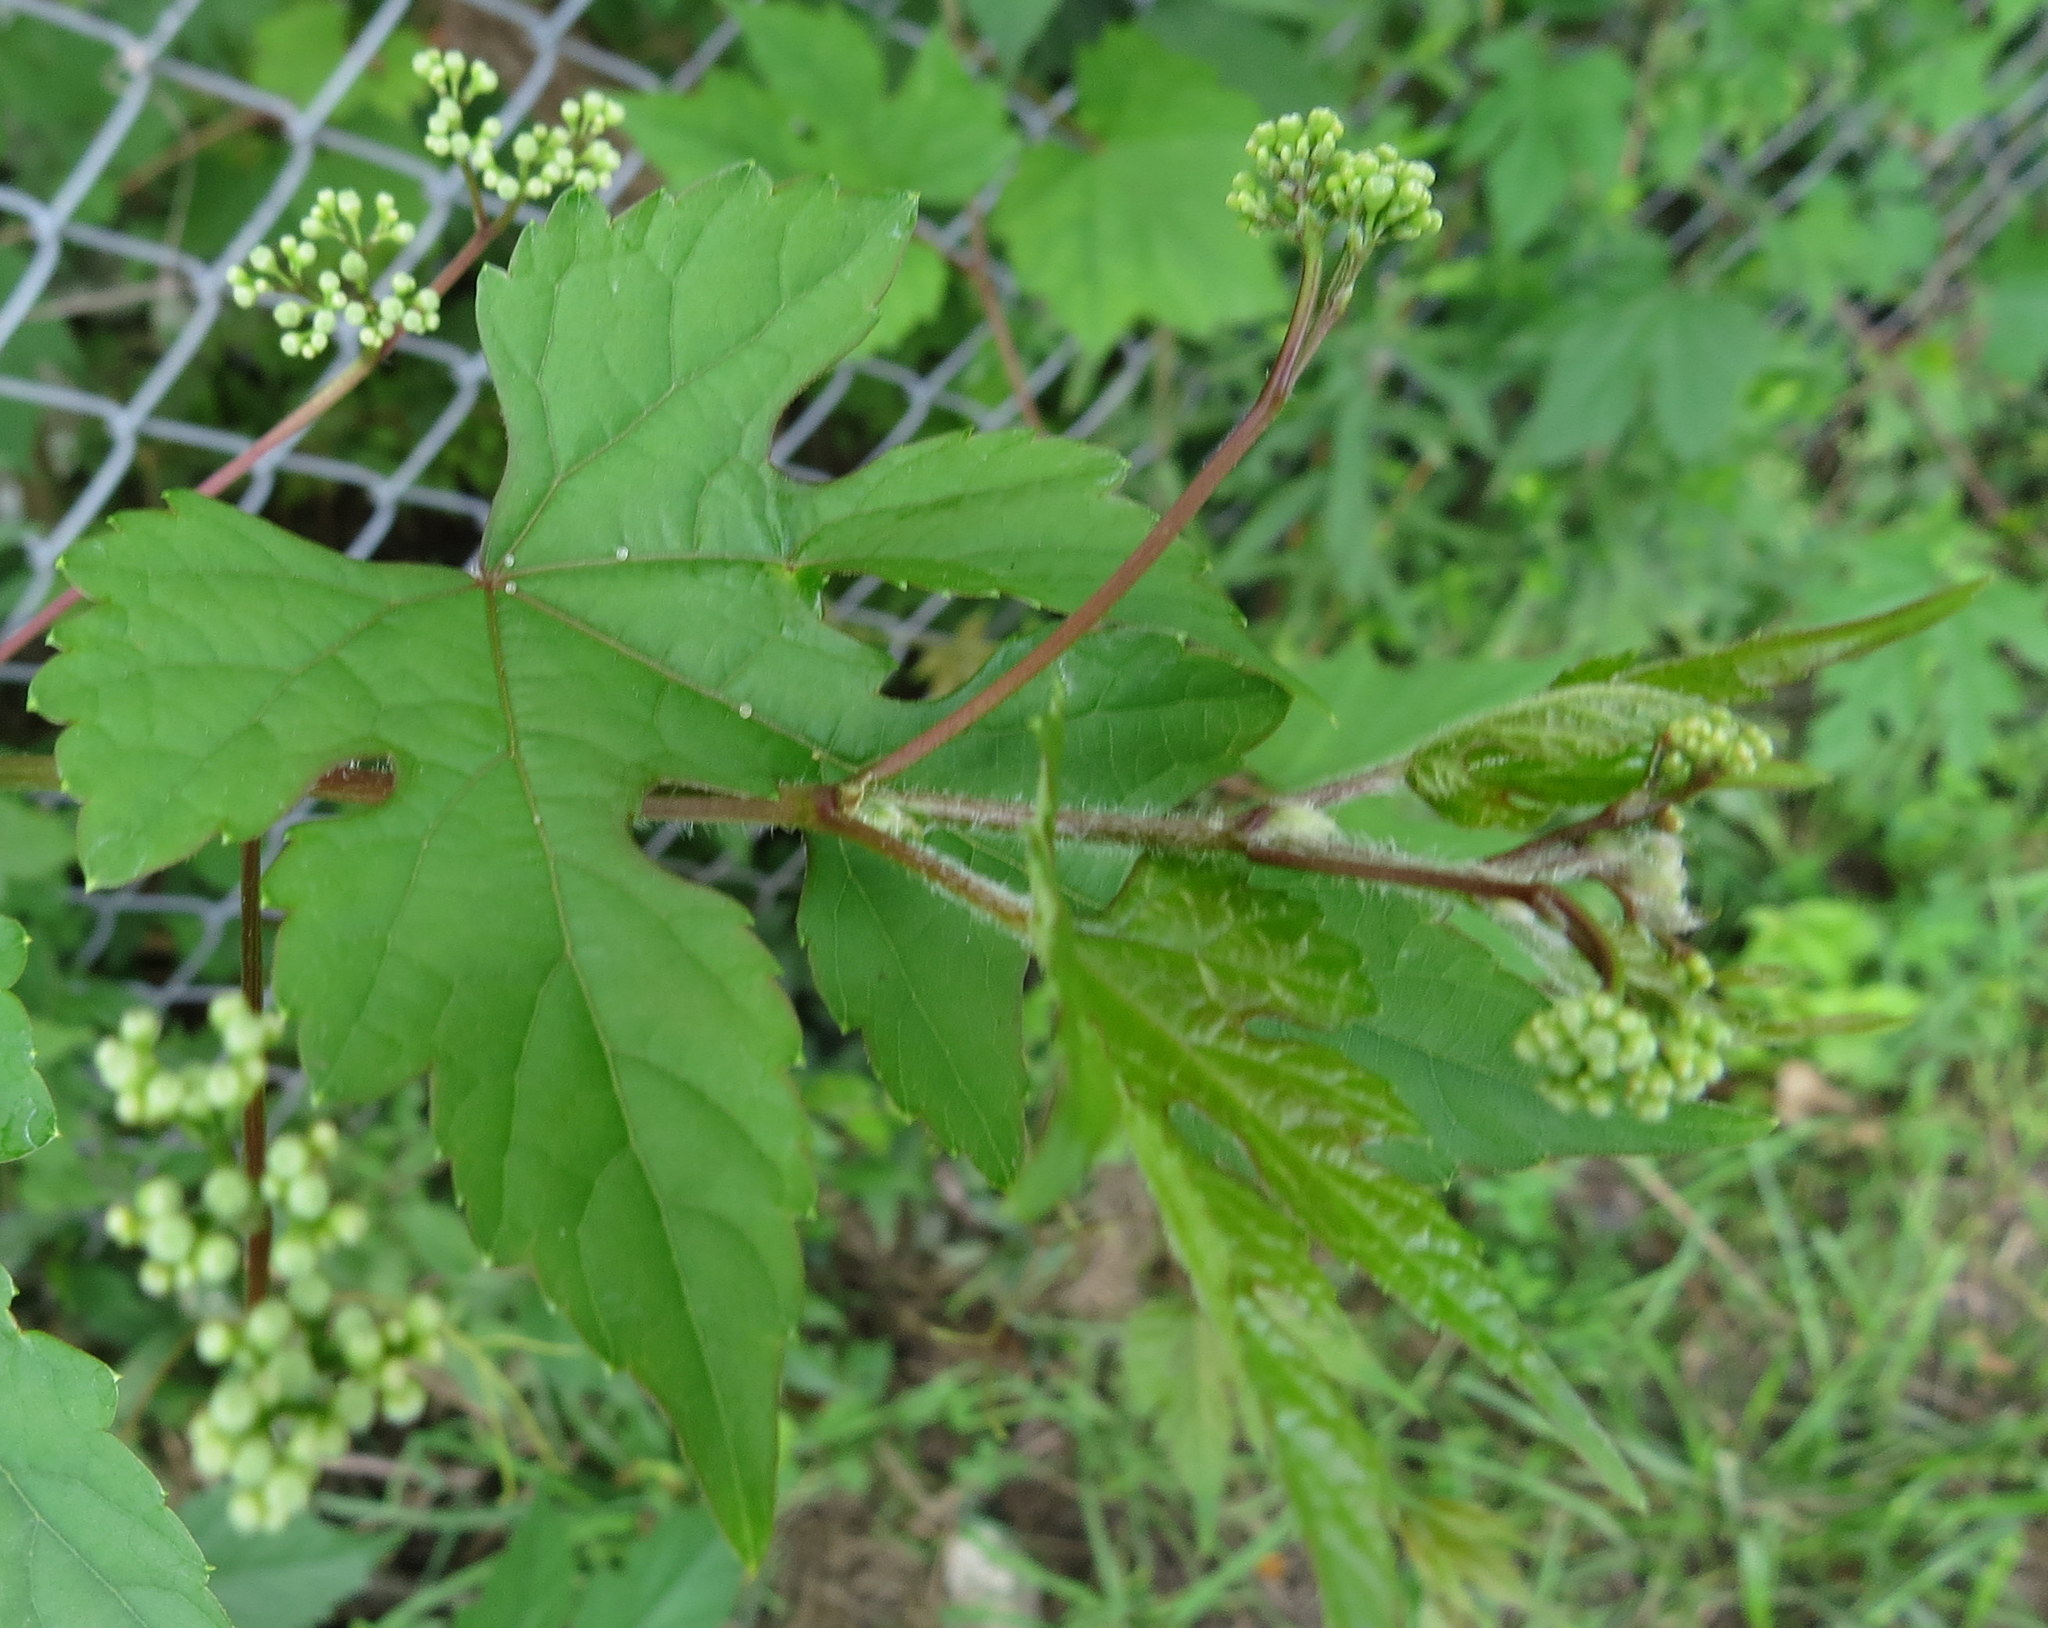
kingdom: Plantae
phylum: Tracheophyta
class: Magnoliopsida
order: Vitales
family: Vitaceae
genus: Ampelopsis
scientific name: Ampelopsis glandulosa
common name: Amur peppervine
